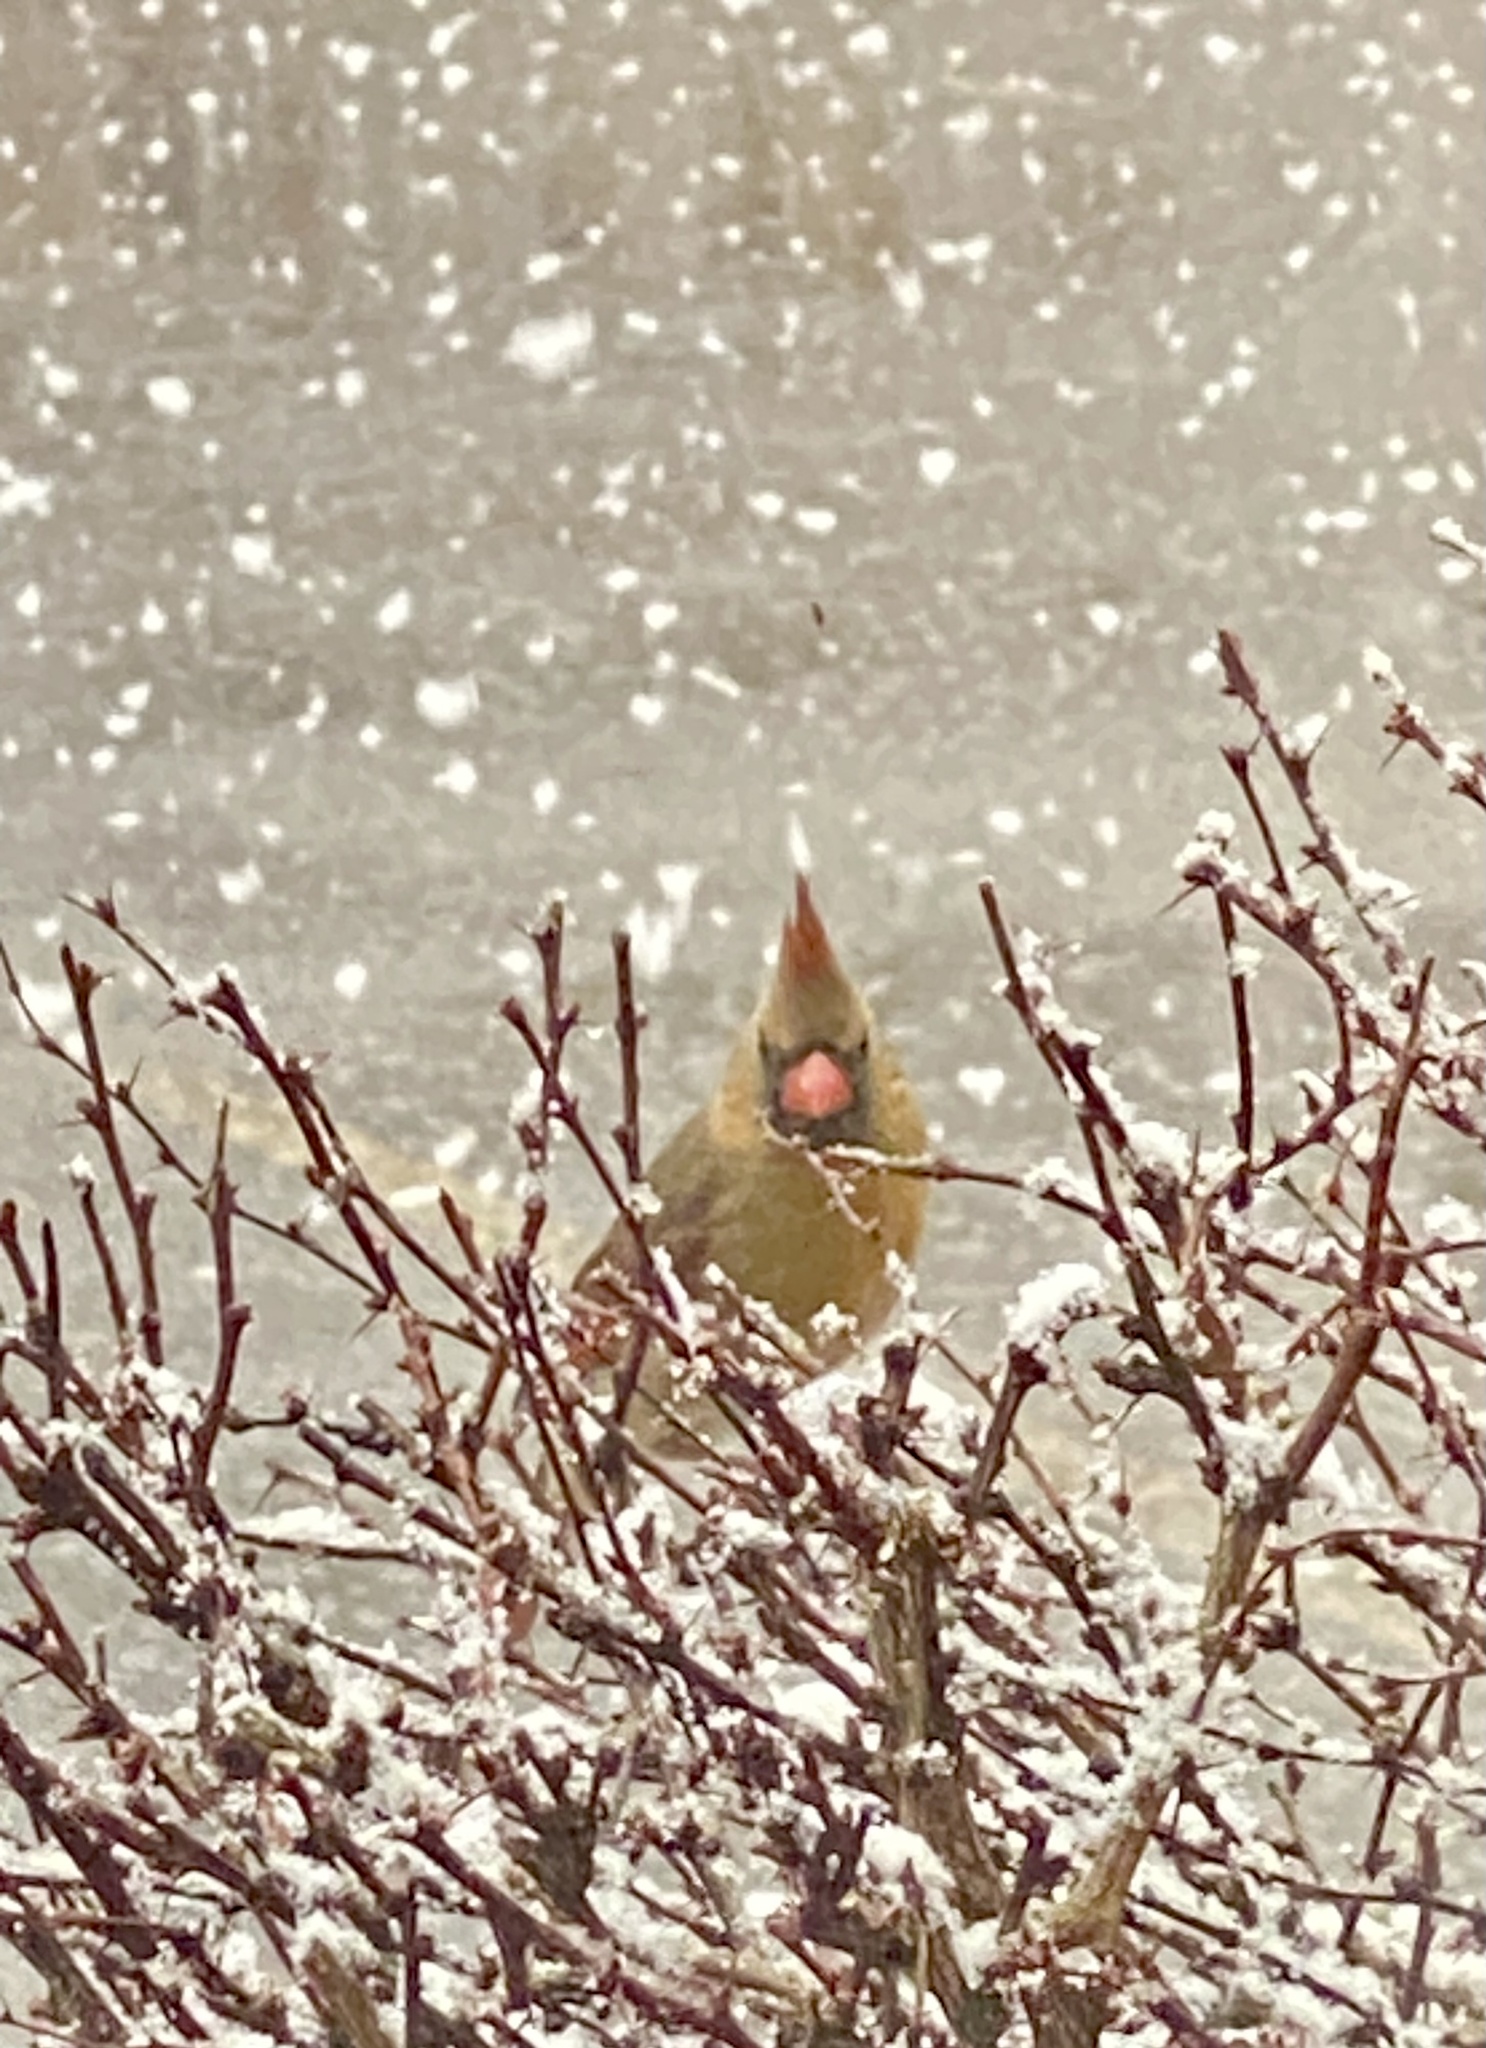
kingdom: Animalia
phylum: Chordata
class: Aves
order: Passeriformes
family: Cardinalidae
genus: Cardinalis
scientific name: Cardinalis cardinalis
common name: Northern cardinal
